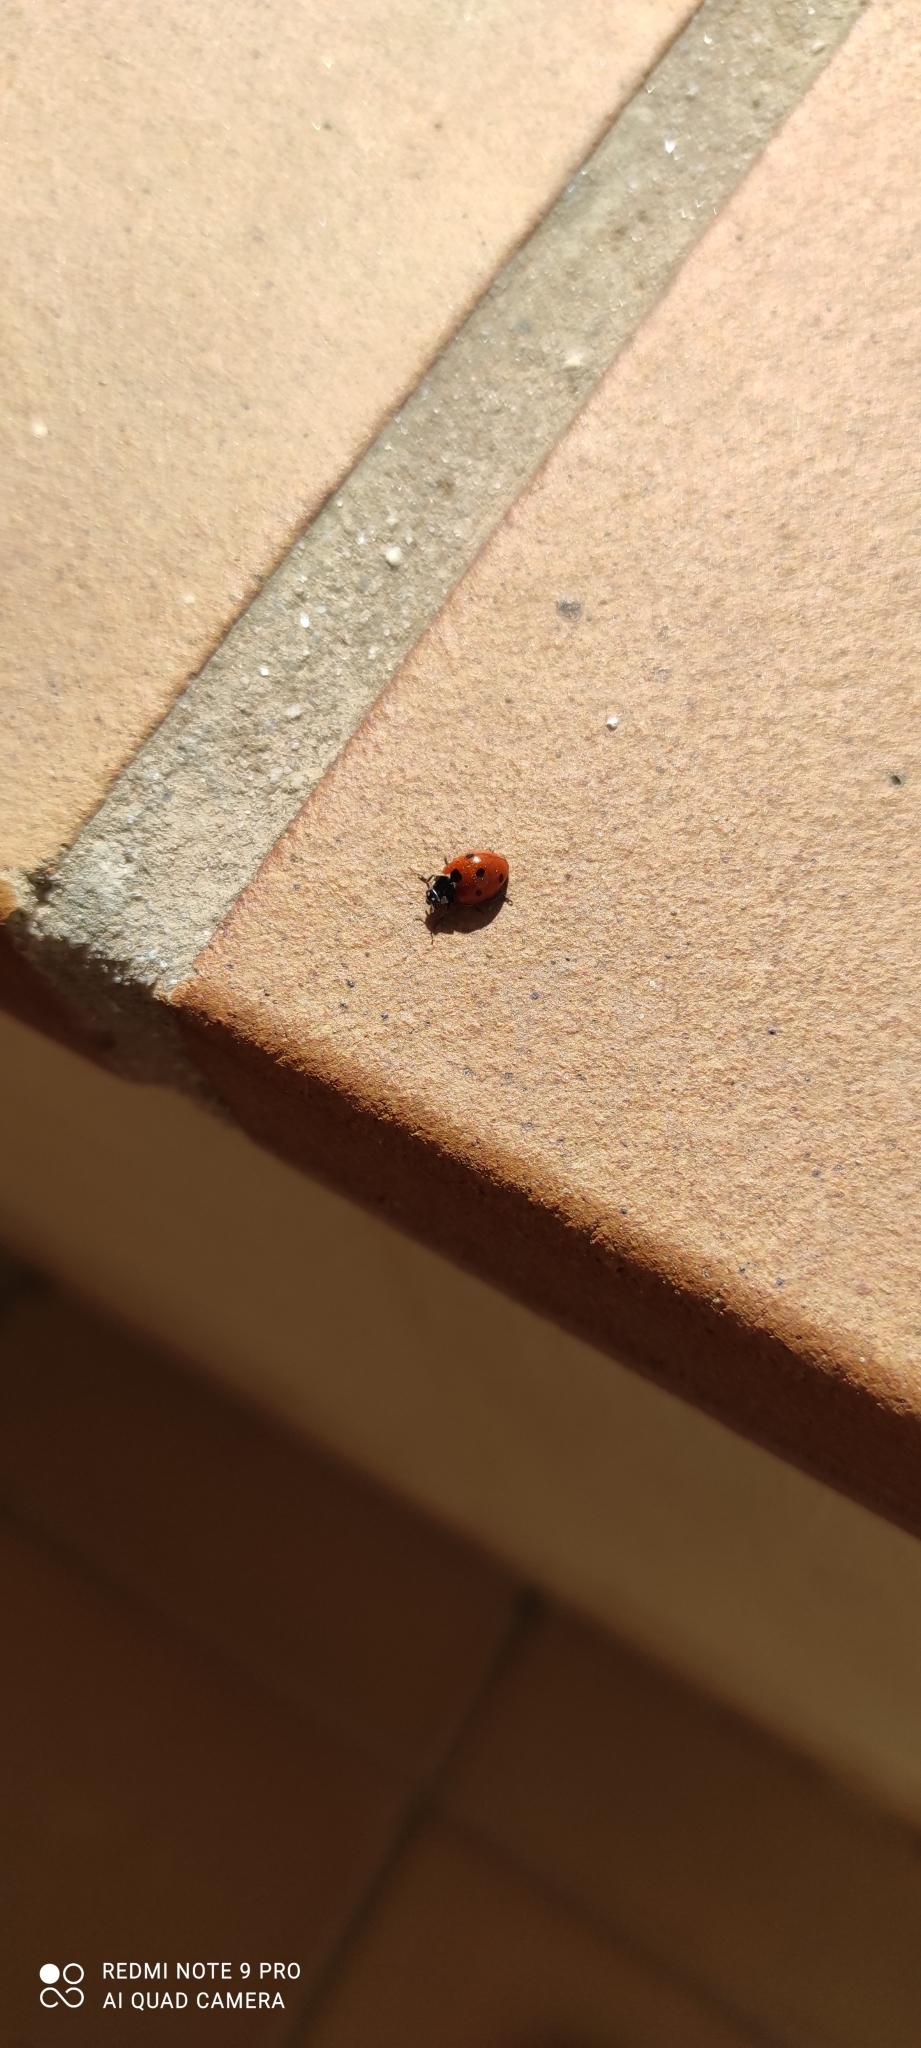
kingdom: Animalia
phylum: Arthropoda
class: Insecta
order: Coleoptera
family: Coccinellidae
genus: Coccinella
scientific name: Coccinella septempunctata
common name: Sevenspotted lady beetle
